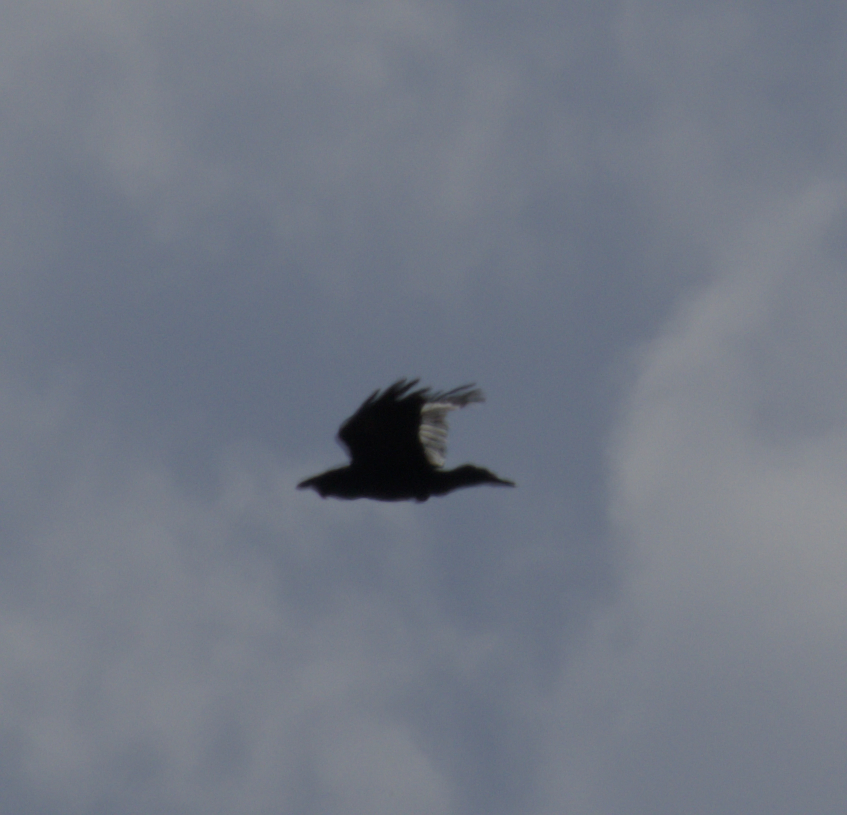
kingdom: Animalia
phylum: Chordata
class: Aves
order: Passeriformes
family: Corvidae
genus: Corvus
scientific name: Corvus corax
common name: Common raven
